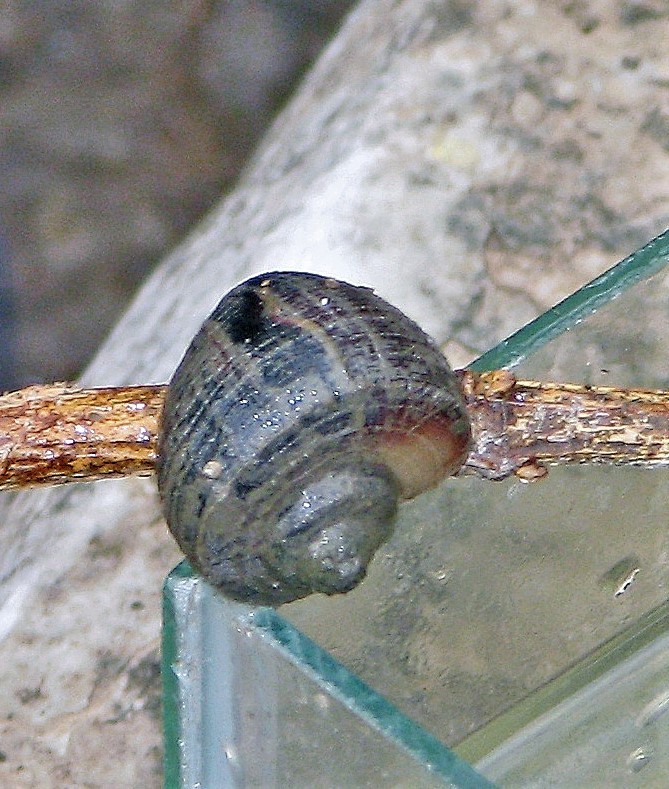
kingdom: Animalia
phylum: Mollusca
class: Gastropoda
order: Architaenioglossa
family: Ampullariidae
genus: Pomacea
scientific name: Pomacea scalaris
